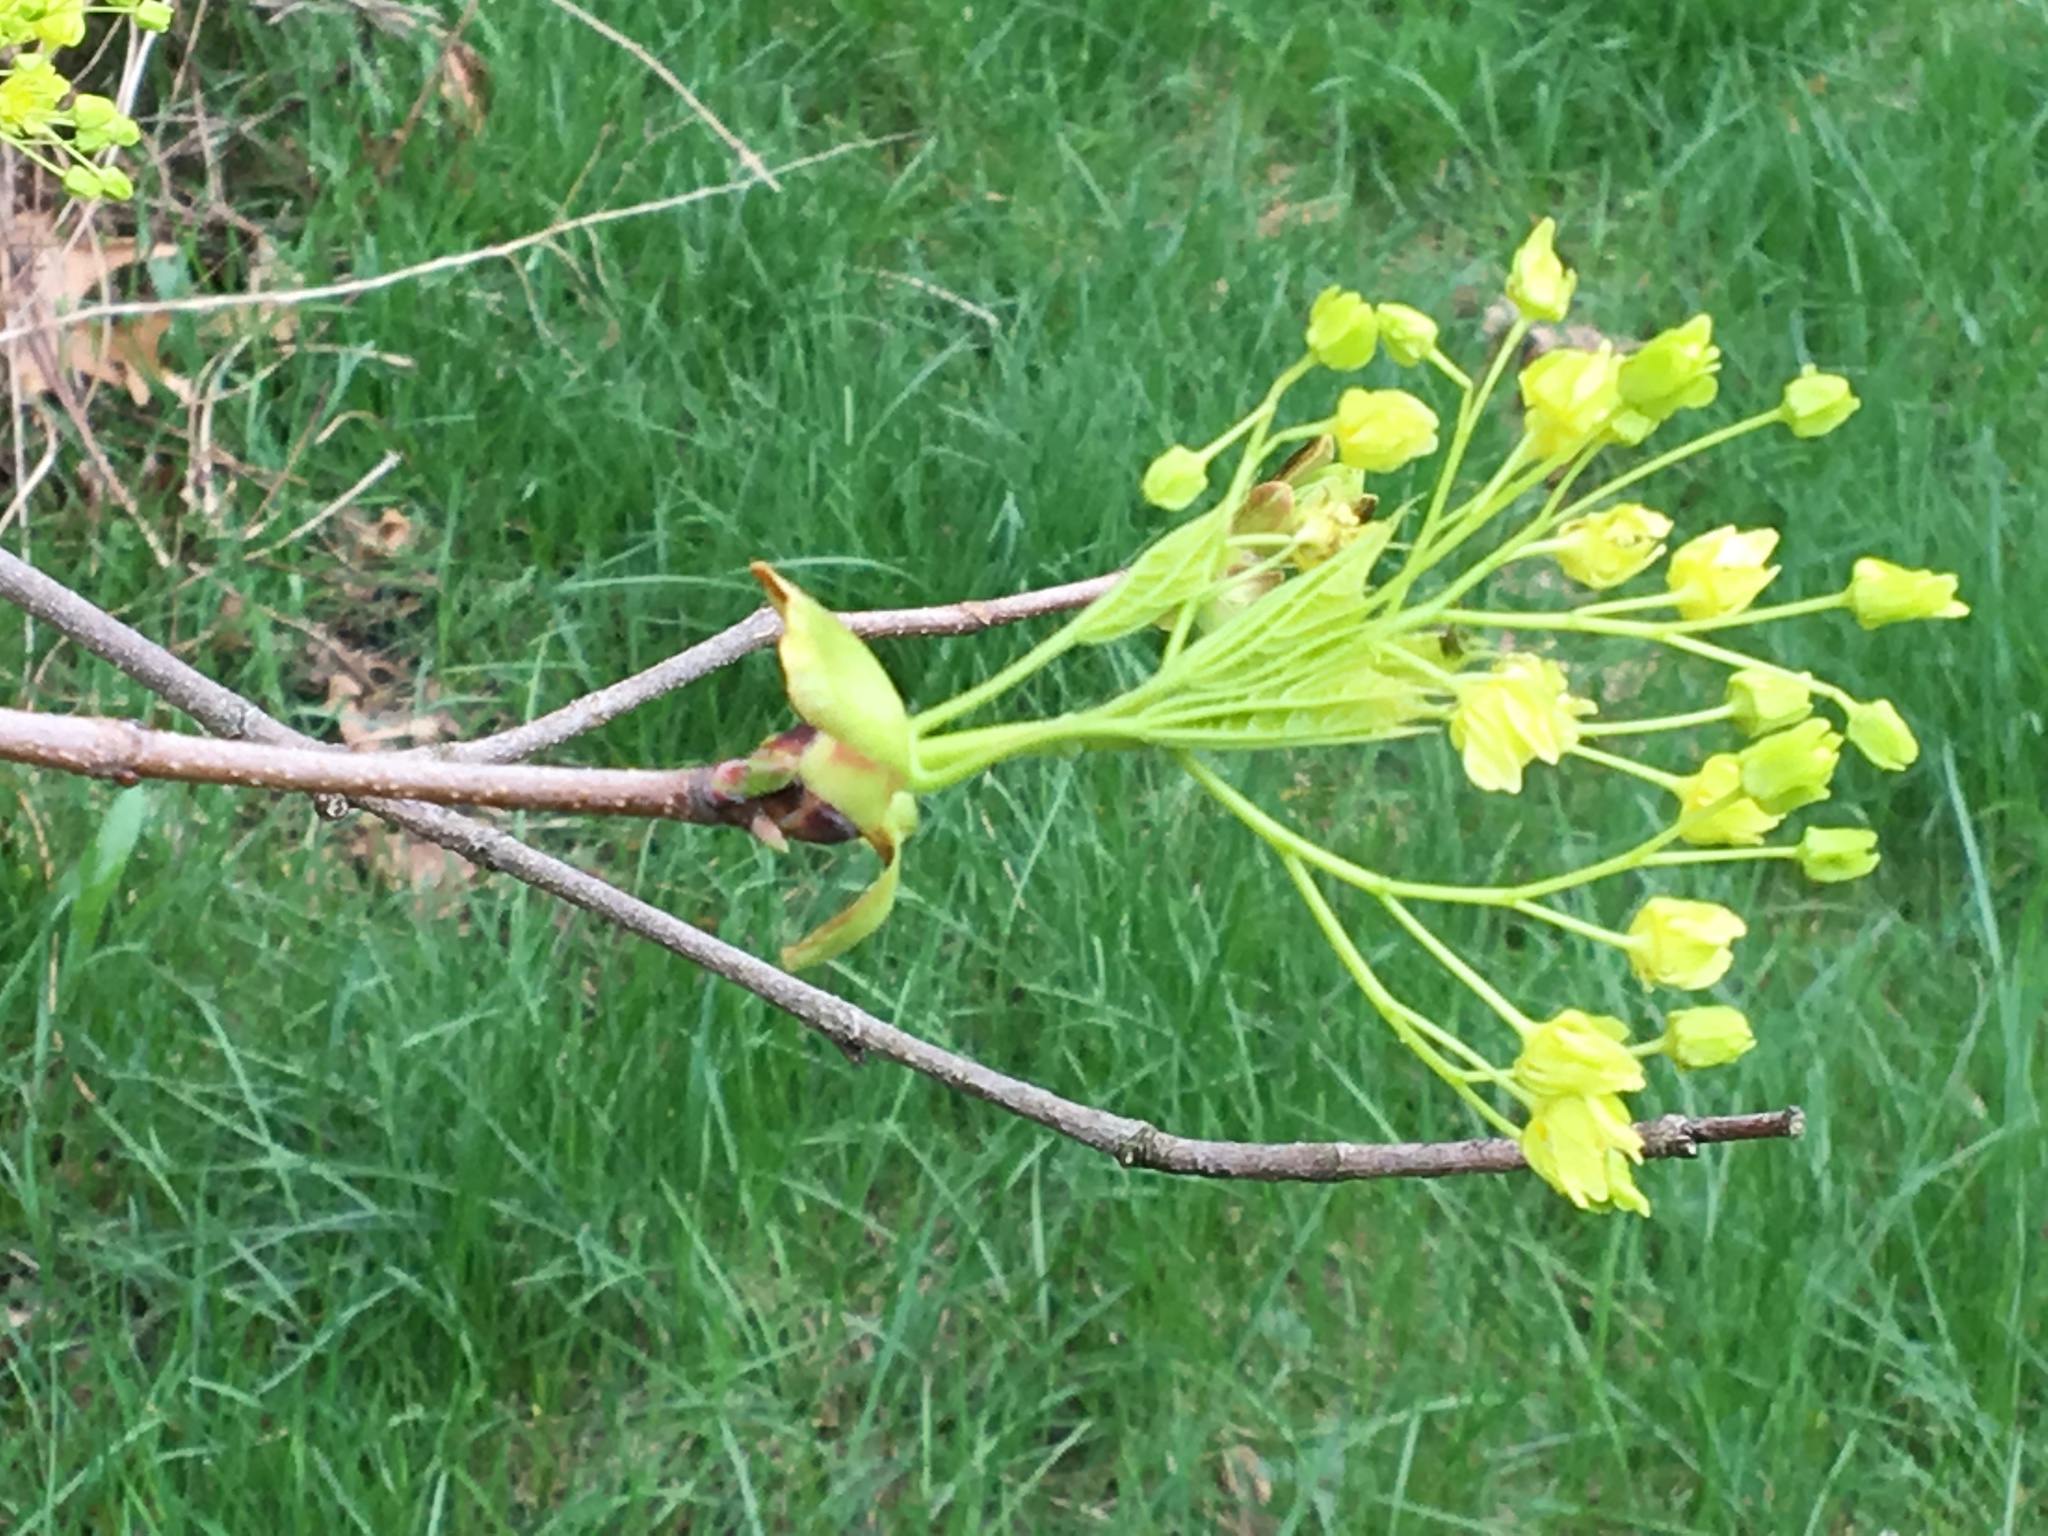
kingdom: Plantae
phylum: Tracheophyta
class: Magnoliopsida
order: Sapindales
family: Sapindaceae
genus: Acer
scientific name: Acer platanoides
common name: Norway maple
